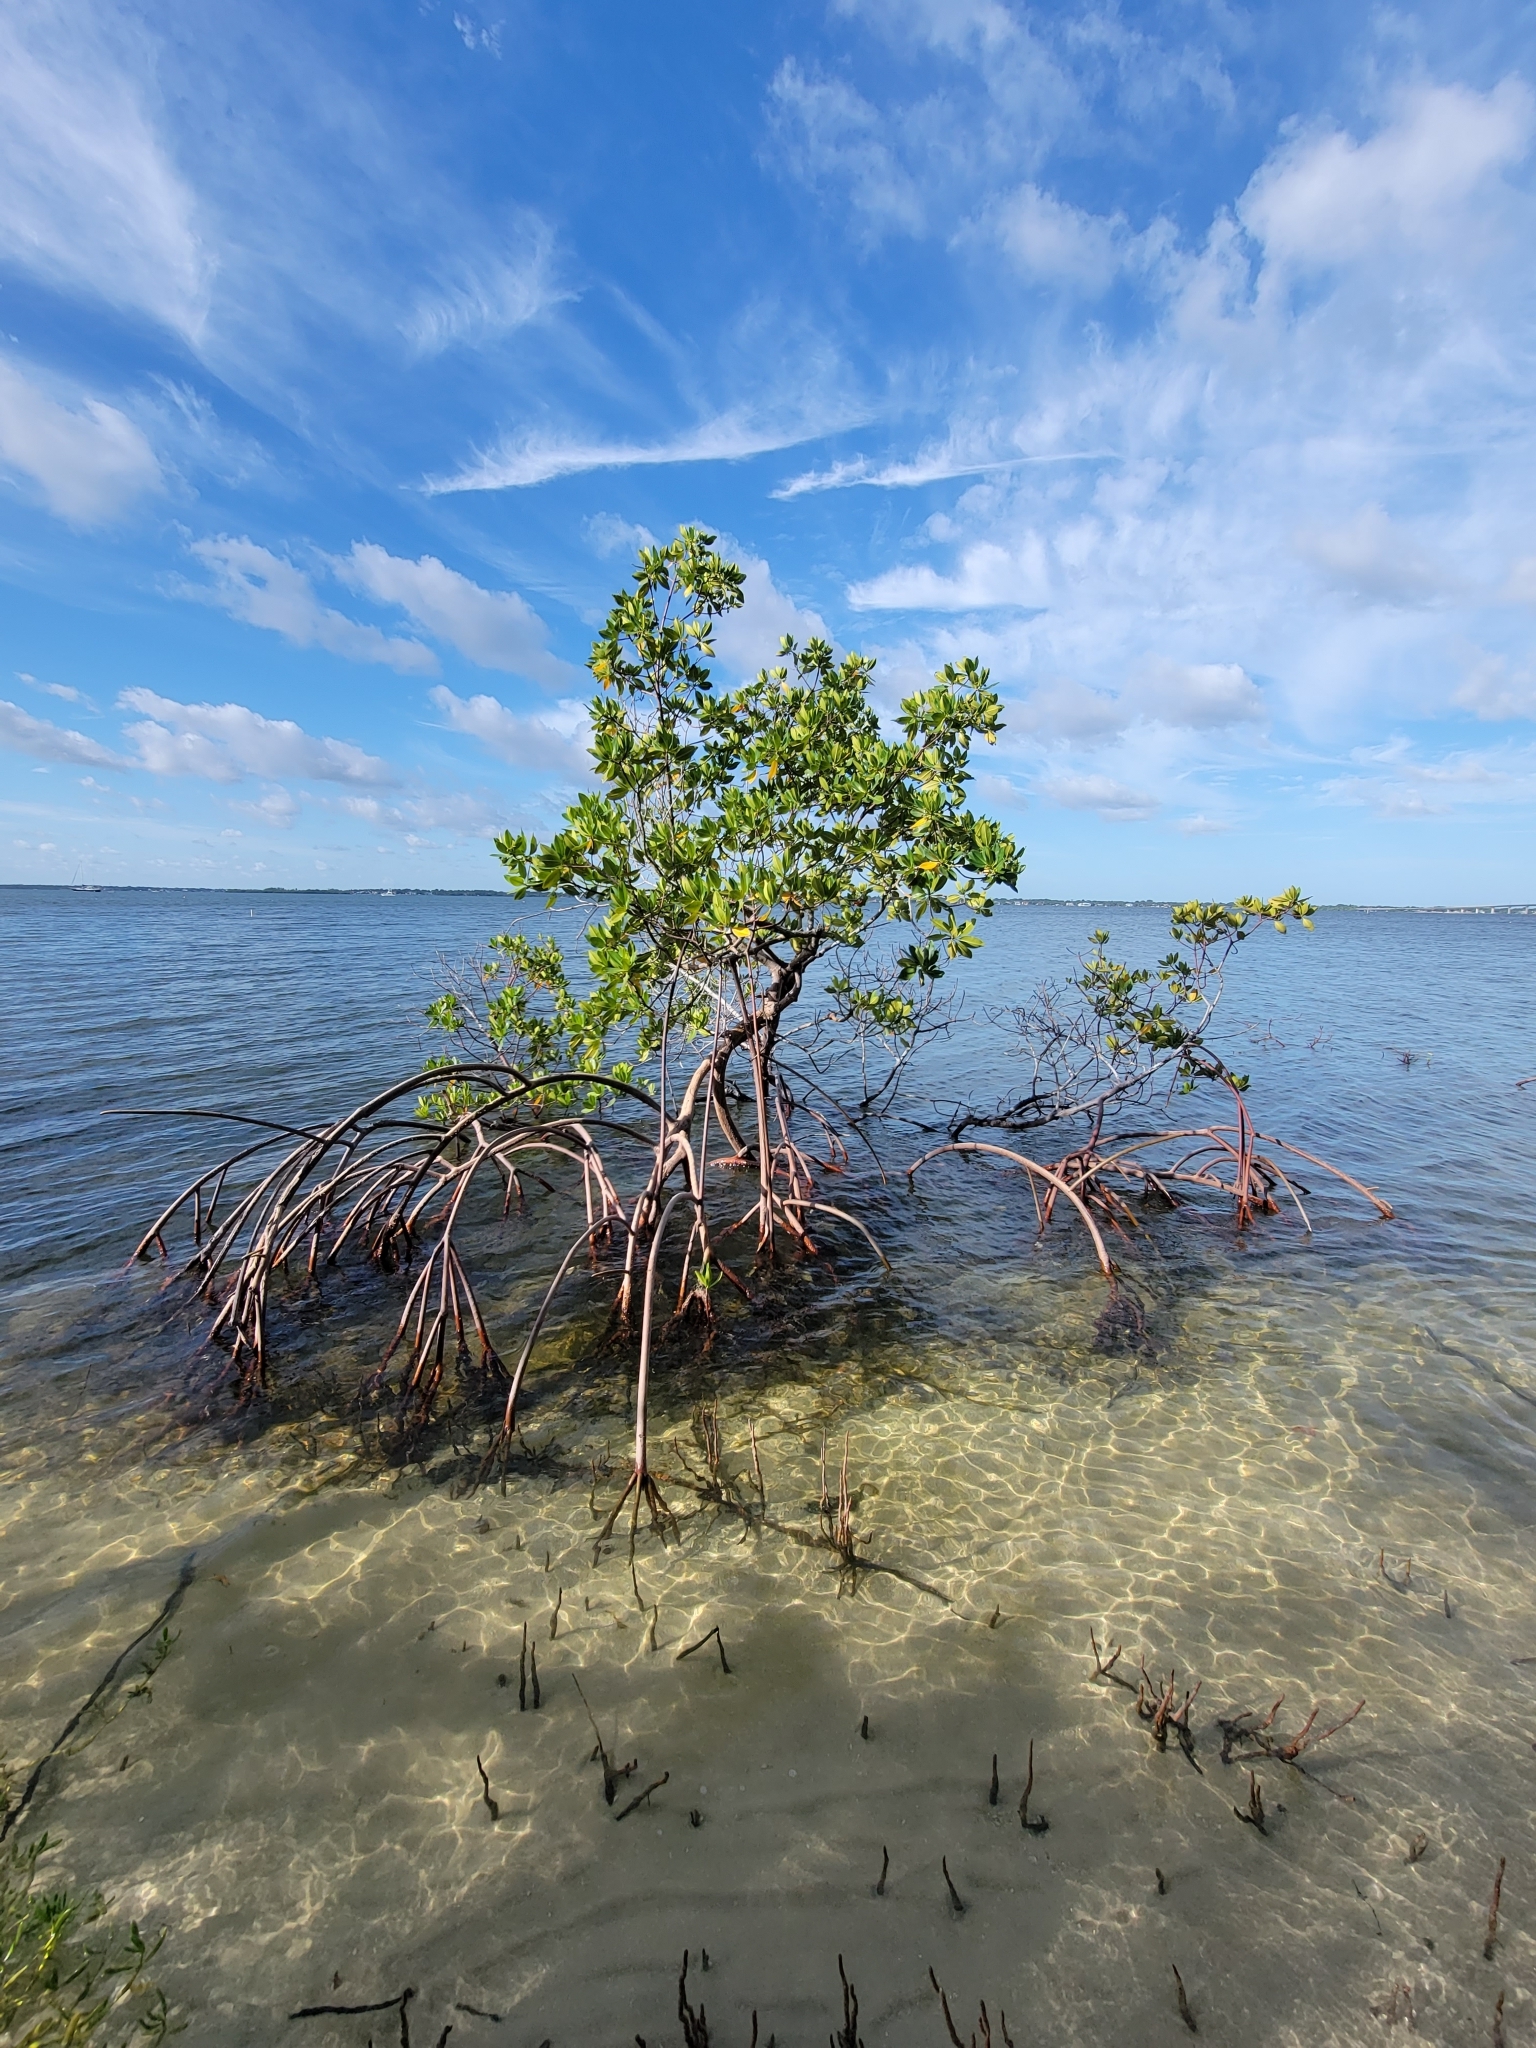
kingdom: Plantae
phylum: Tracheophyta
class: Magnoliopsida
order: Malpighiales
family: Rhizophoraceae
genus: Rhizophora
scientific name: Rhizophora mangle
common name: Red mangrove
